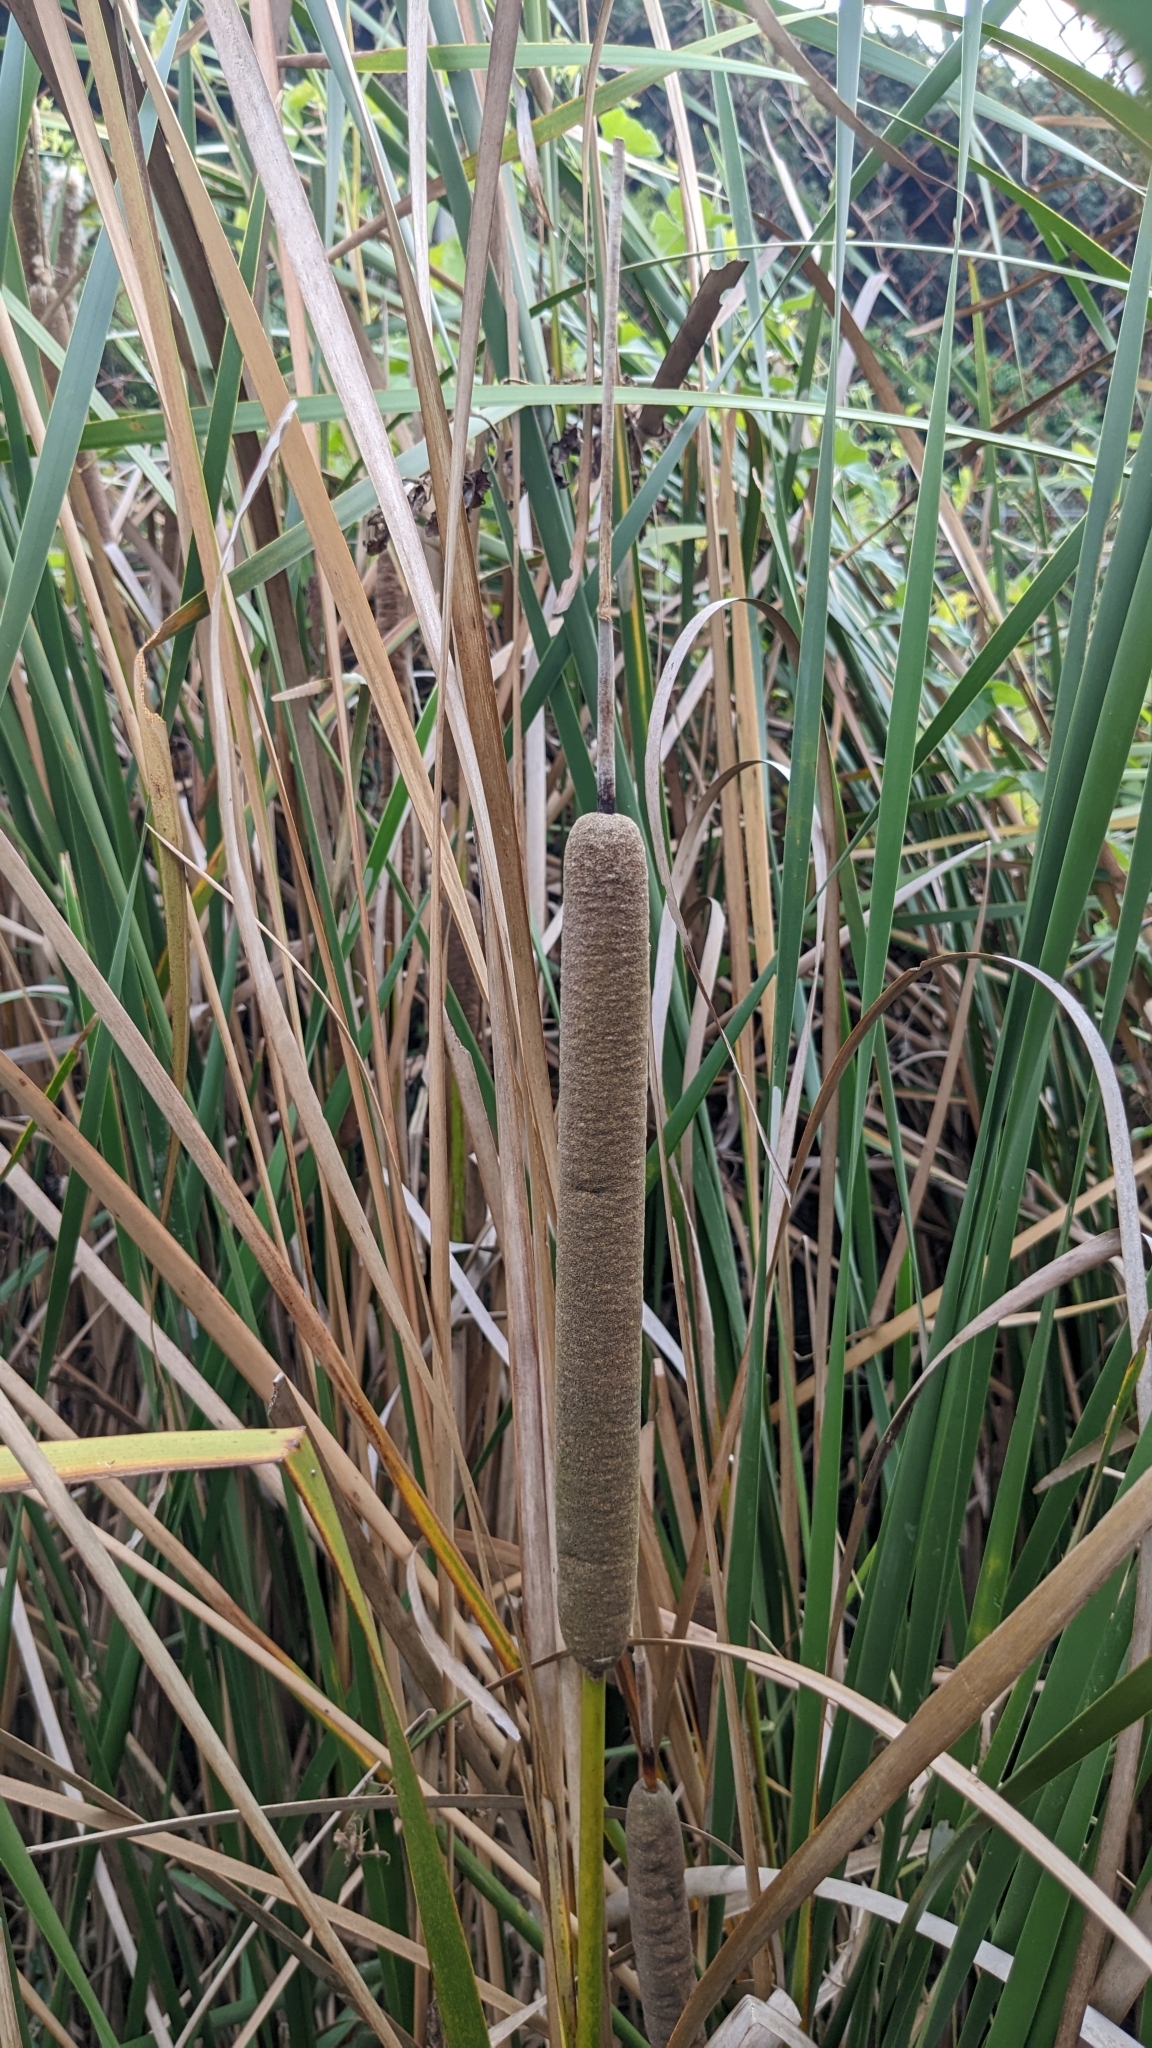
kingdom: Plantae
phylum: Tracheophyta
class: Liliopsida
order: Poales
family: Typhaceae
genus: Typha
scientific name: Typha angustifolia
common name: Lesser bulrush
